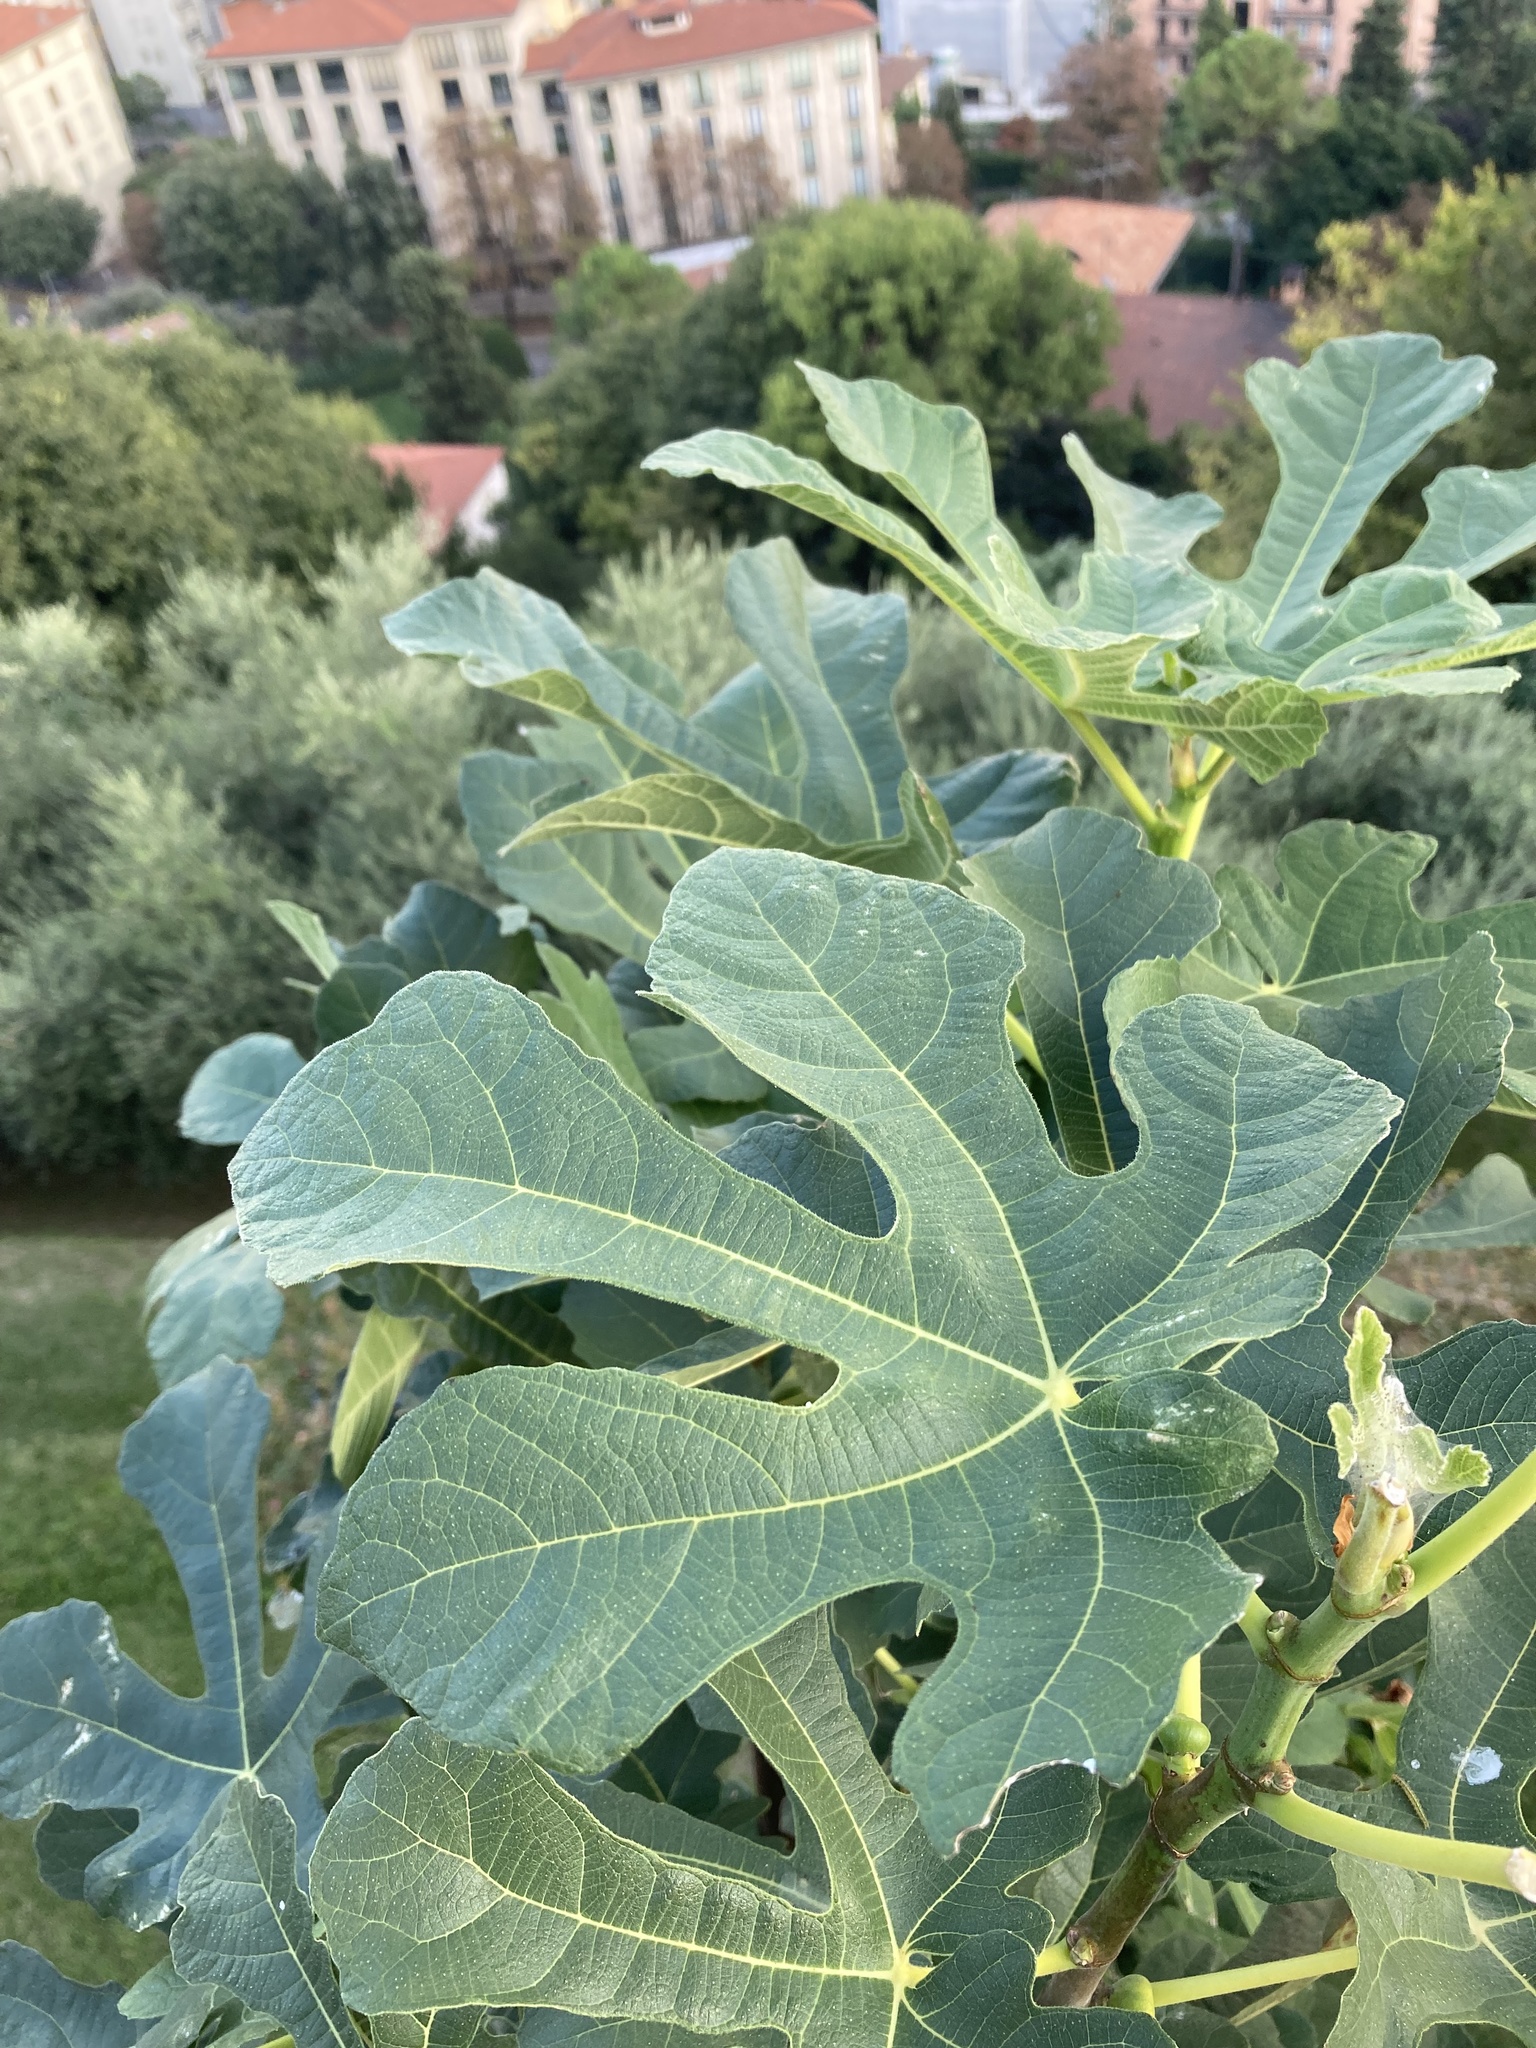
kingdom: Plantae
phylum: Tracheophyta
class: Magnoliopsida
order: Rosales
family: Moraceae
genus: Ficus
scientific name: Ficus carica
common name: Fig
